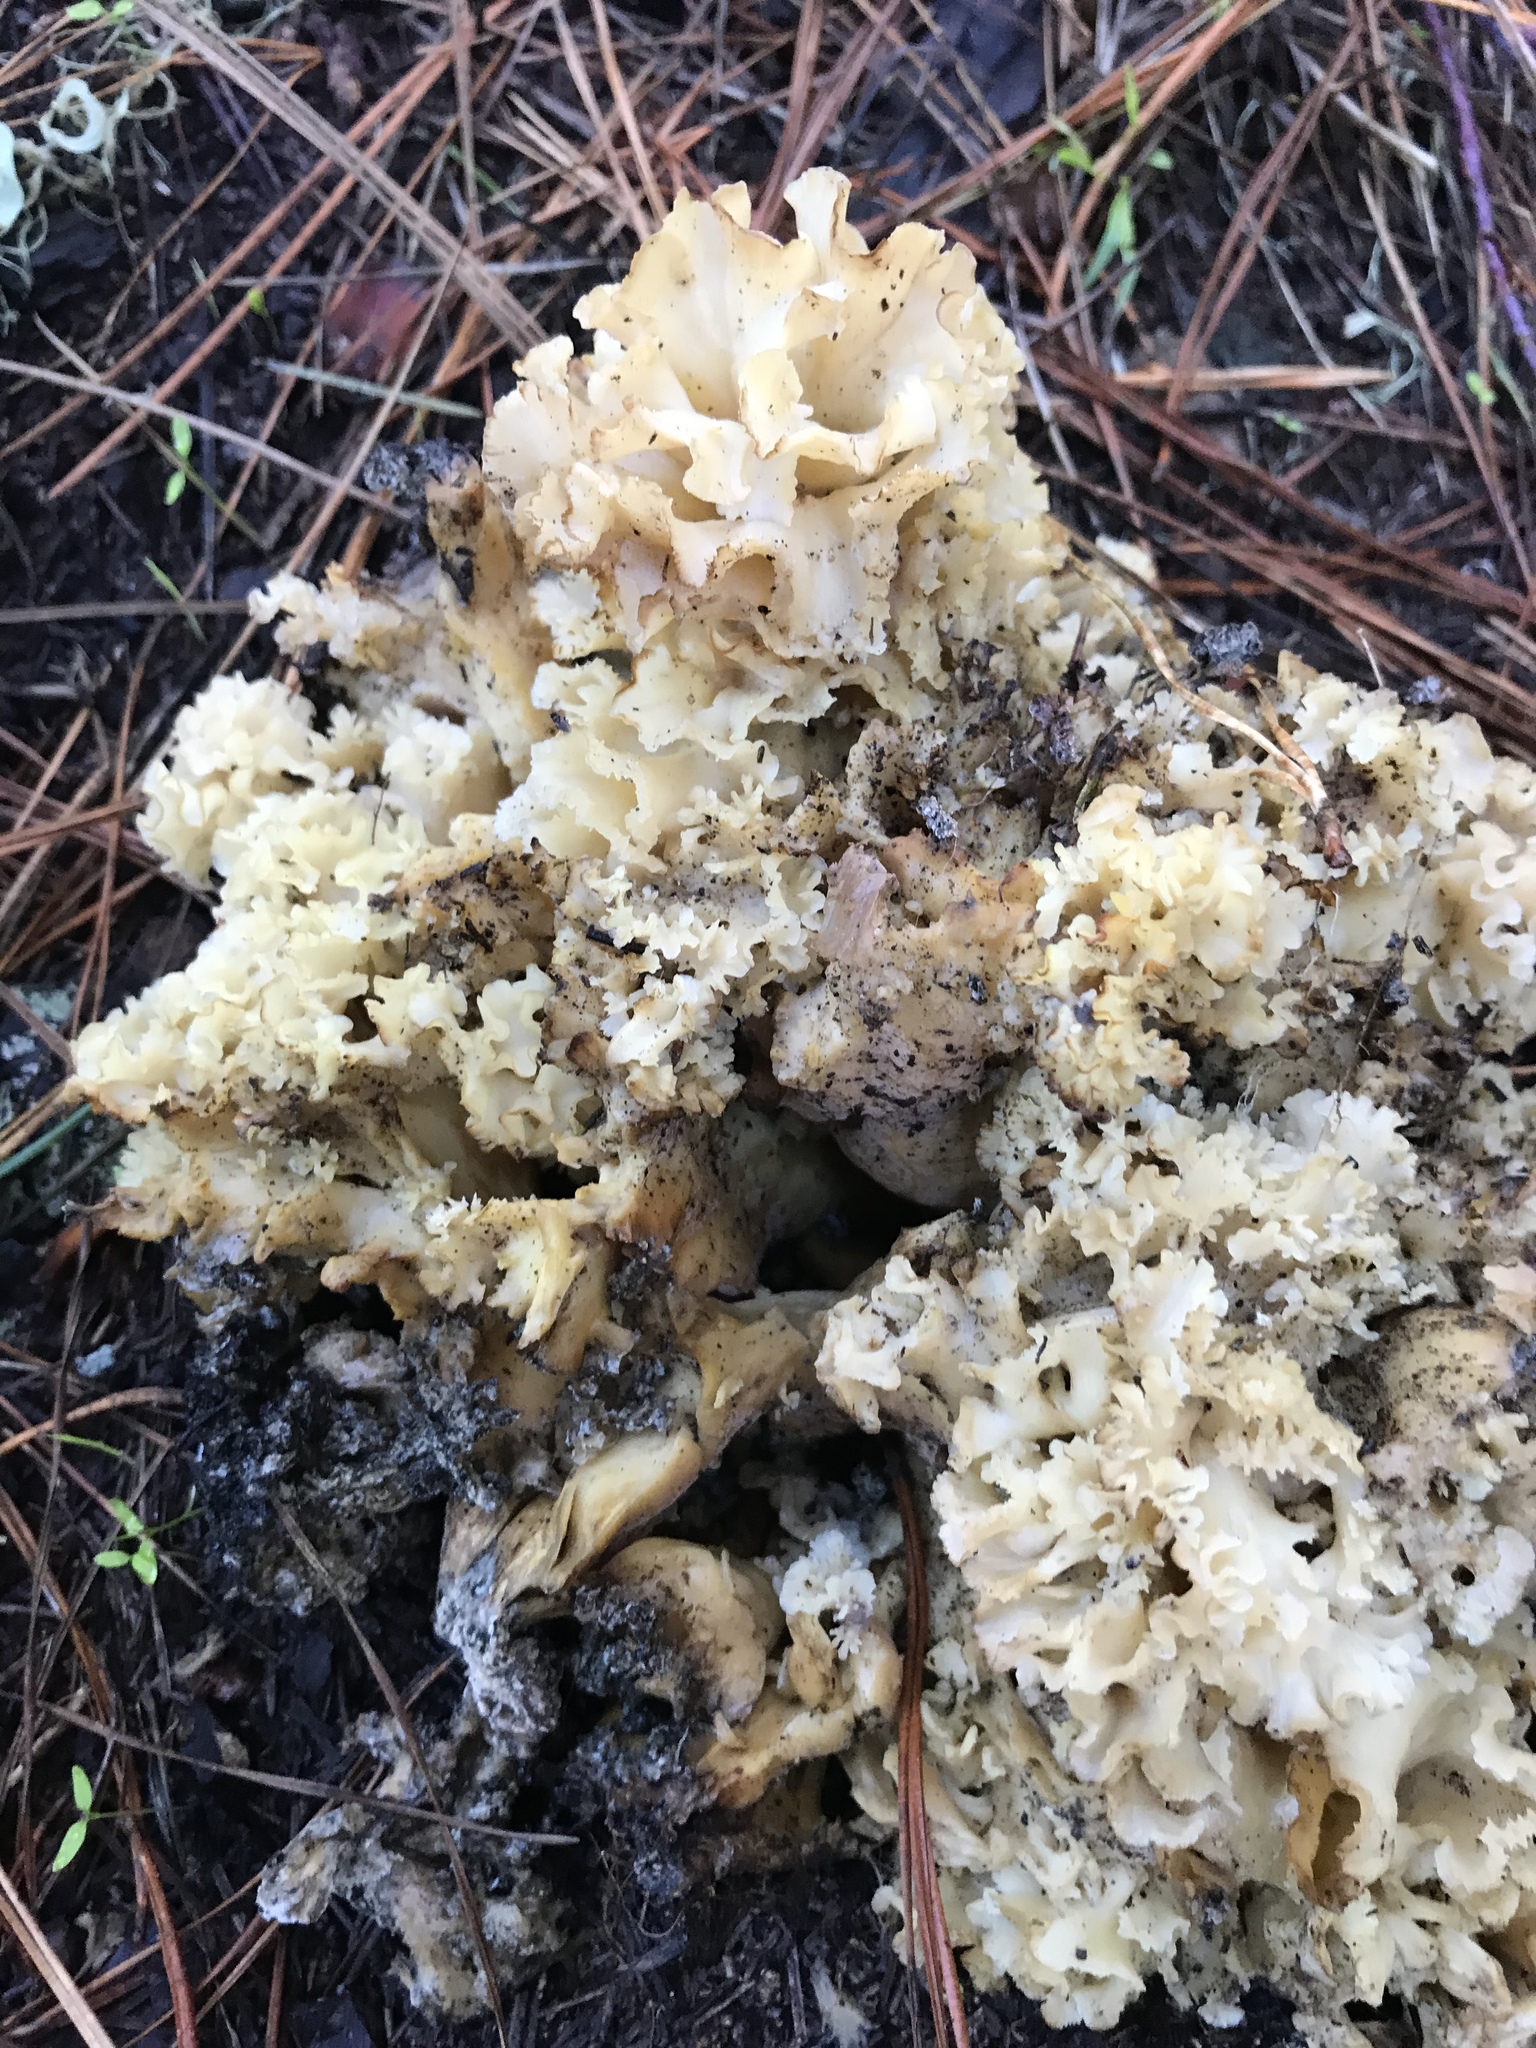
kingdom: Fungi
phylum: Basidiomycota
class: Agaricomycetes
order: Polyporales
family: Sparassidaceae
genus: Sparassis
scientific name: Sparassis radicata
